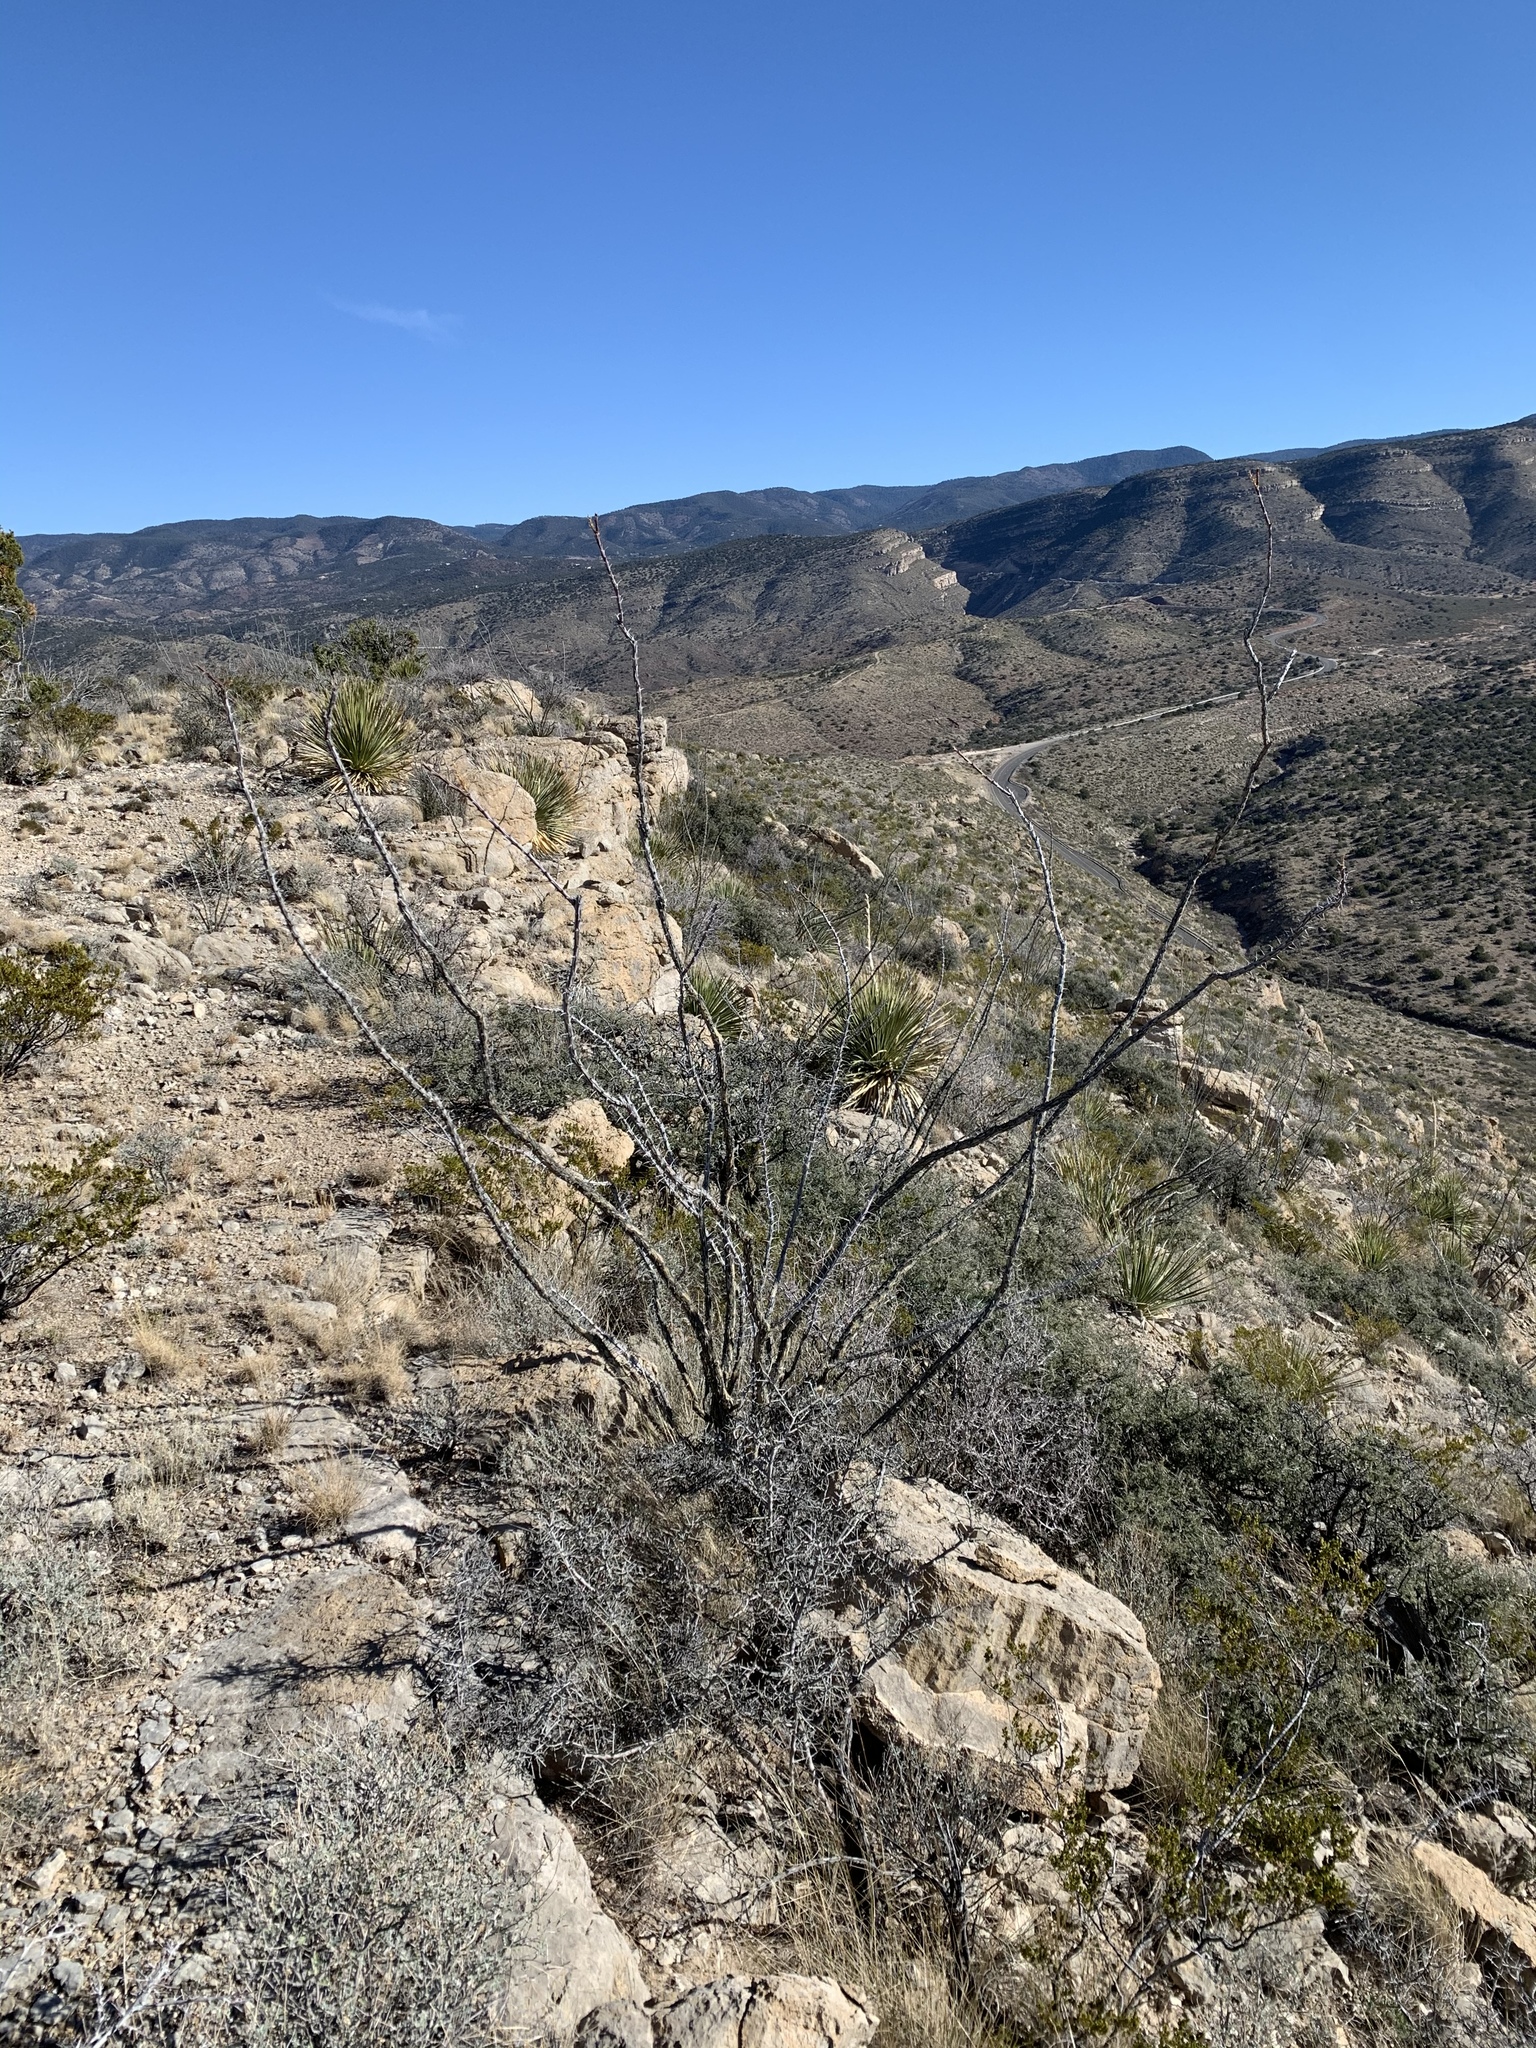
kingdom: Plantae
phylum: Tracheophyta
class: Magnoliopsida
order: Ericales
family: Fouquieriaceae
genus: Fouquieria
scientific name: Fouquieria splendens
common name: Vine-cactus
